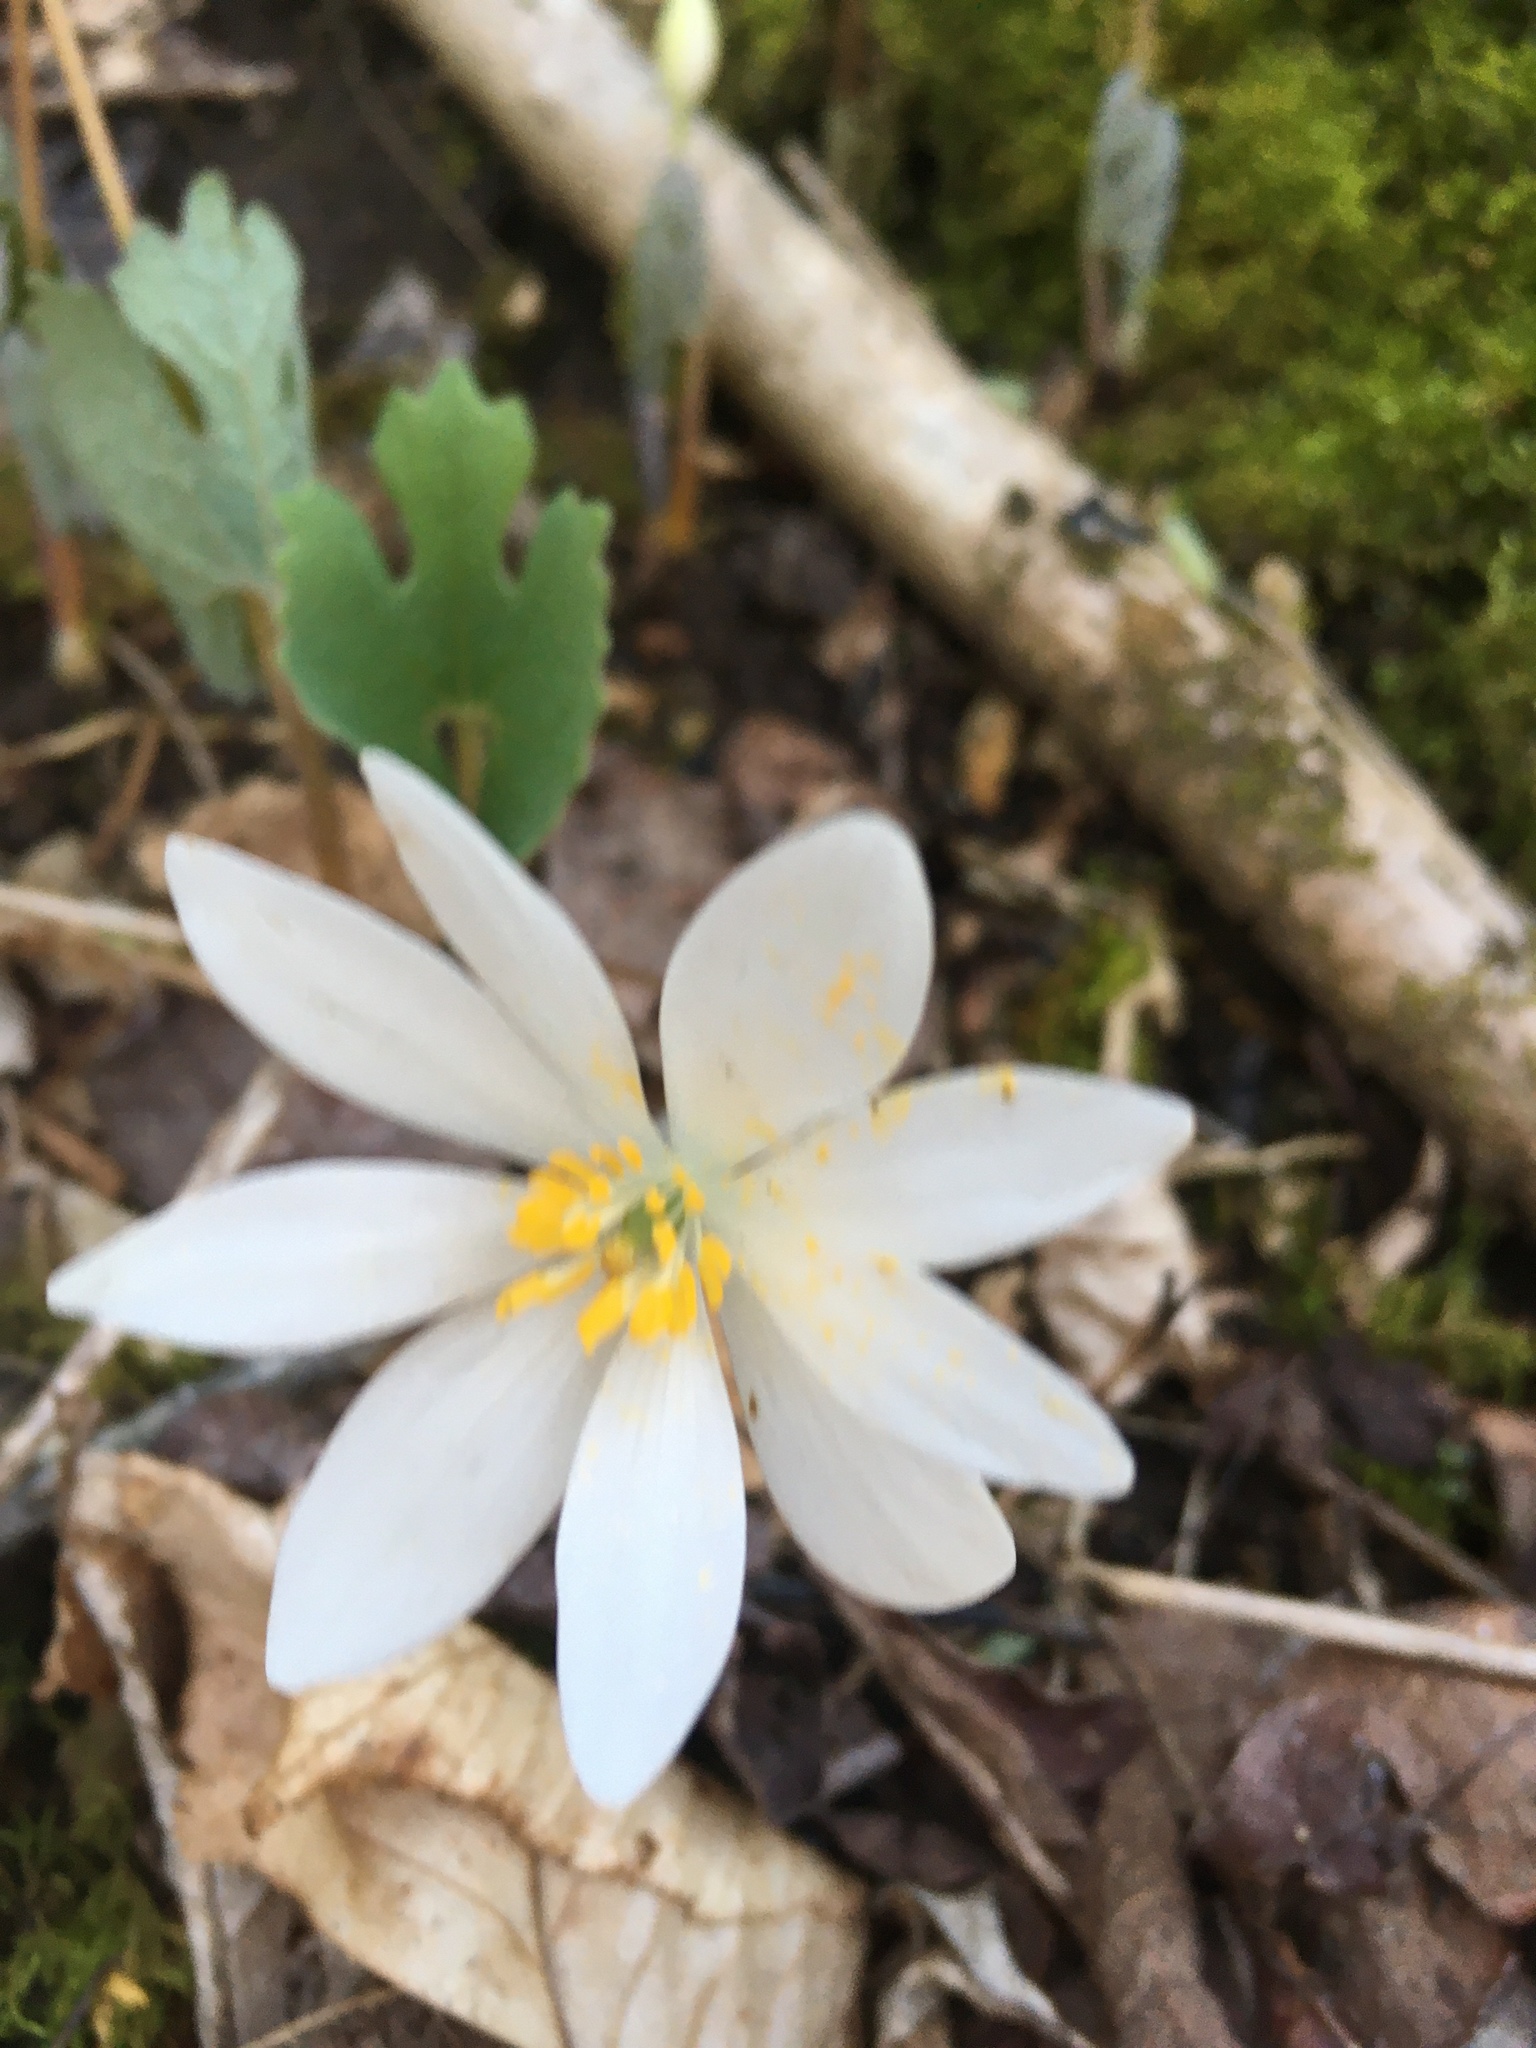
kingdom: Plantae
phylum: Tracheophyta
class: Magnoliopsida
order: Ranunculales
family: Papaveraceae
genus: Sanguinaria
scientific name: Sanguinaria canadensis
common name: Bloodroot
